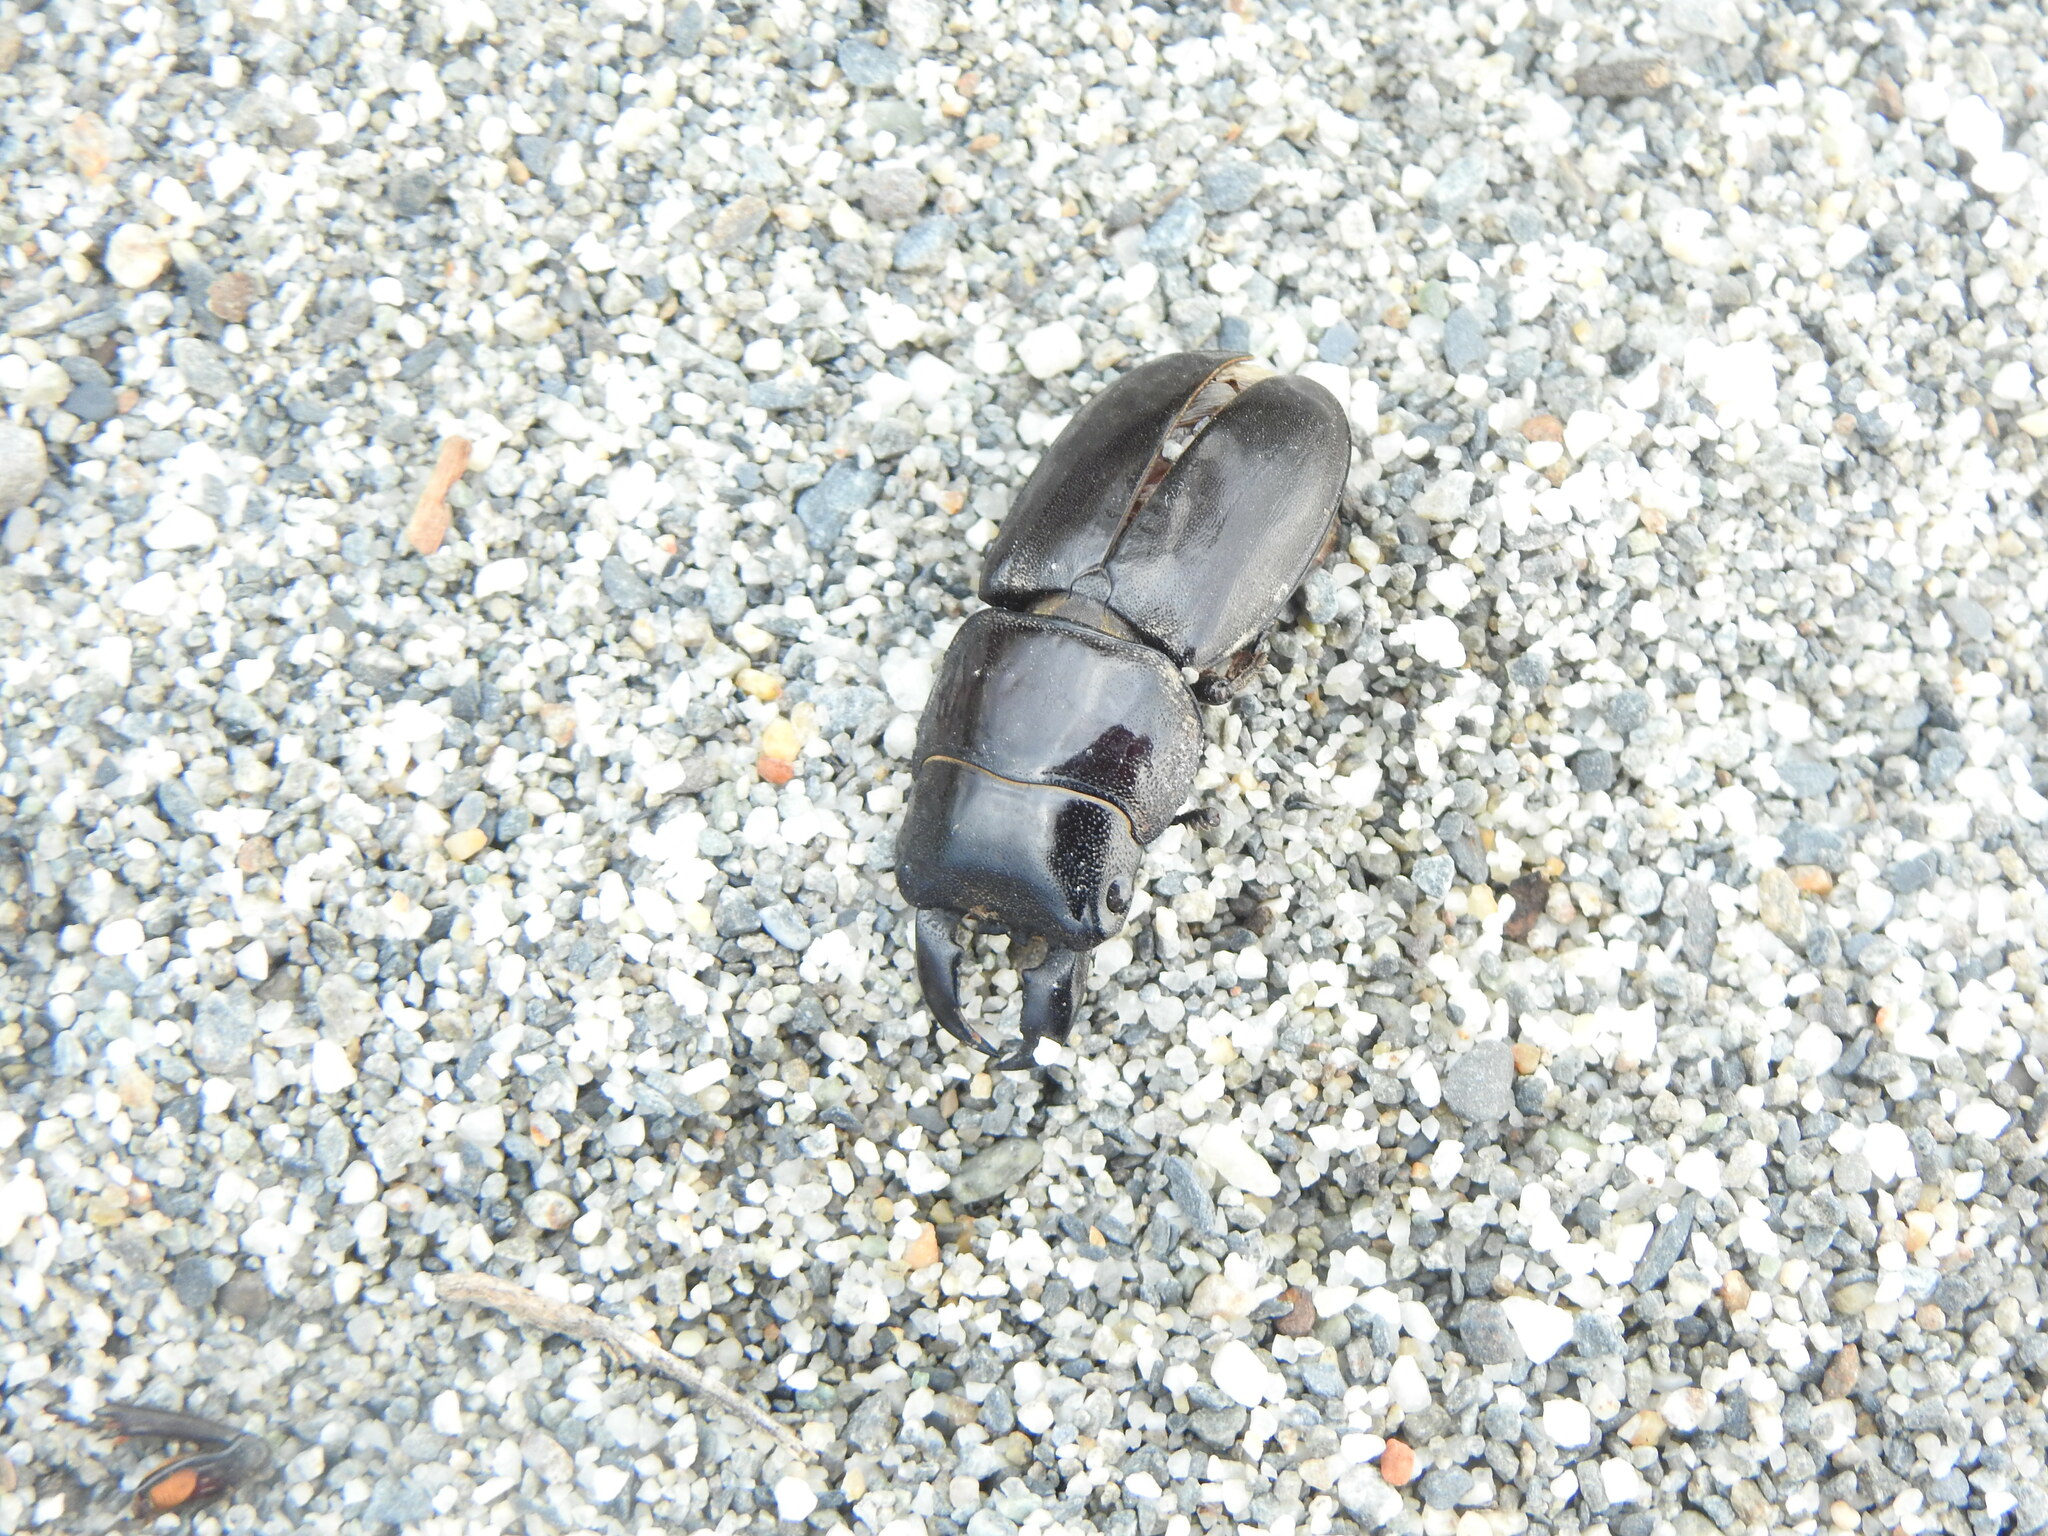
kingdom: Animalia
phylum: Arthropoda
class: Insecta
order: Coleoptera
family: Lucanidae
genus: Serrognathus
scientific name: Serrognathus titanus
